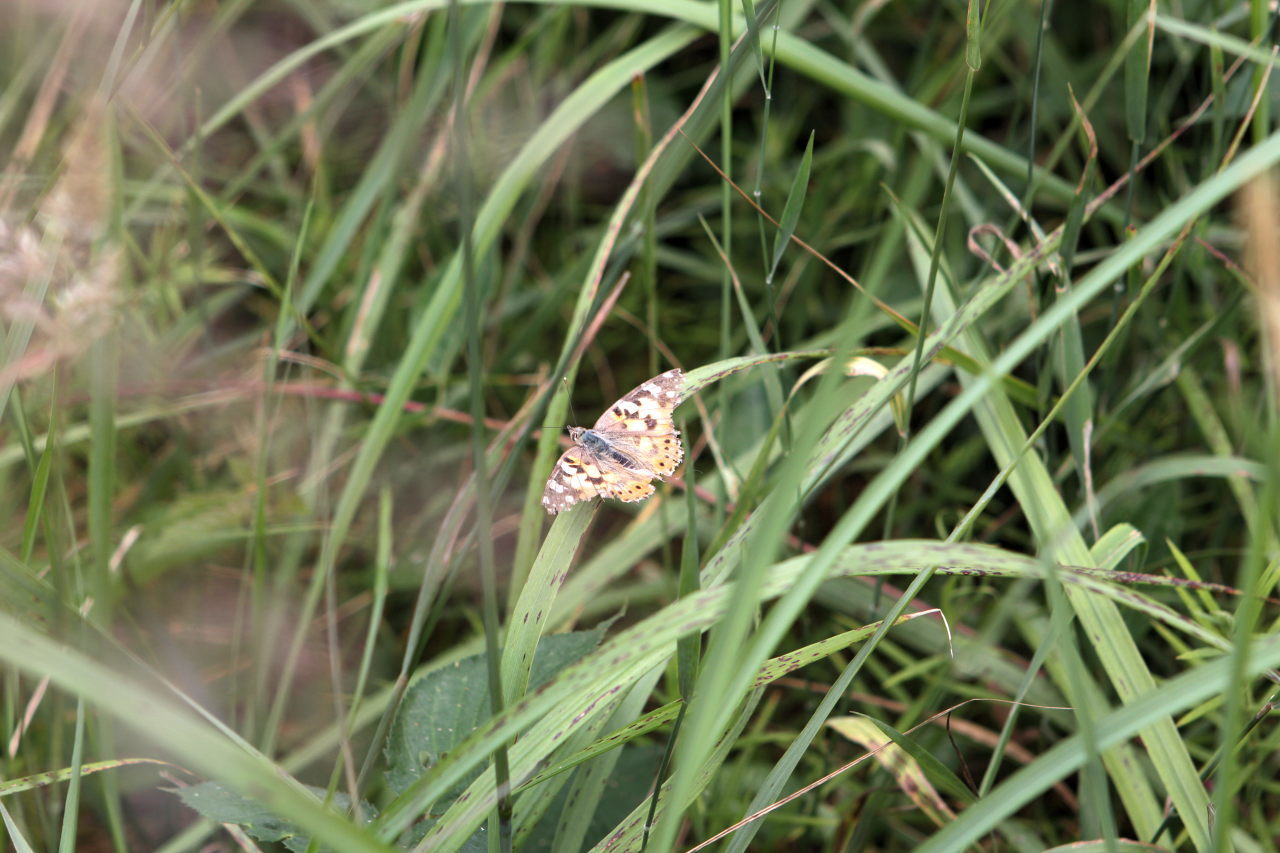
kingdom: Animalia
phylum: Arthropoda
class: Insecta
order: Lepidoptera
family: Nymphalidae
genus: Vanessa
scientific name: Vanessa cardui
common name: Painted lady
